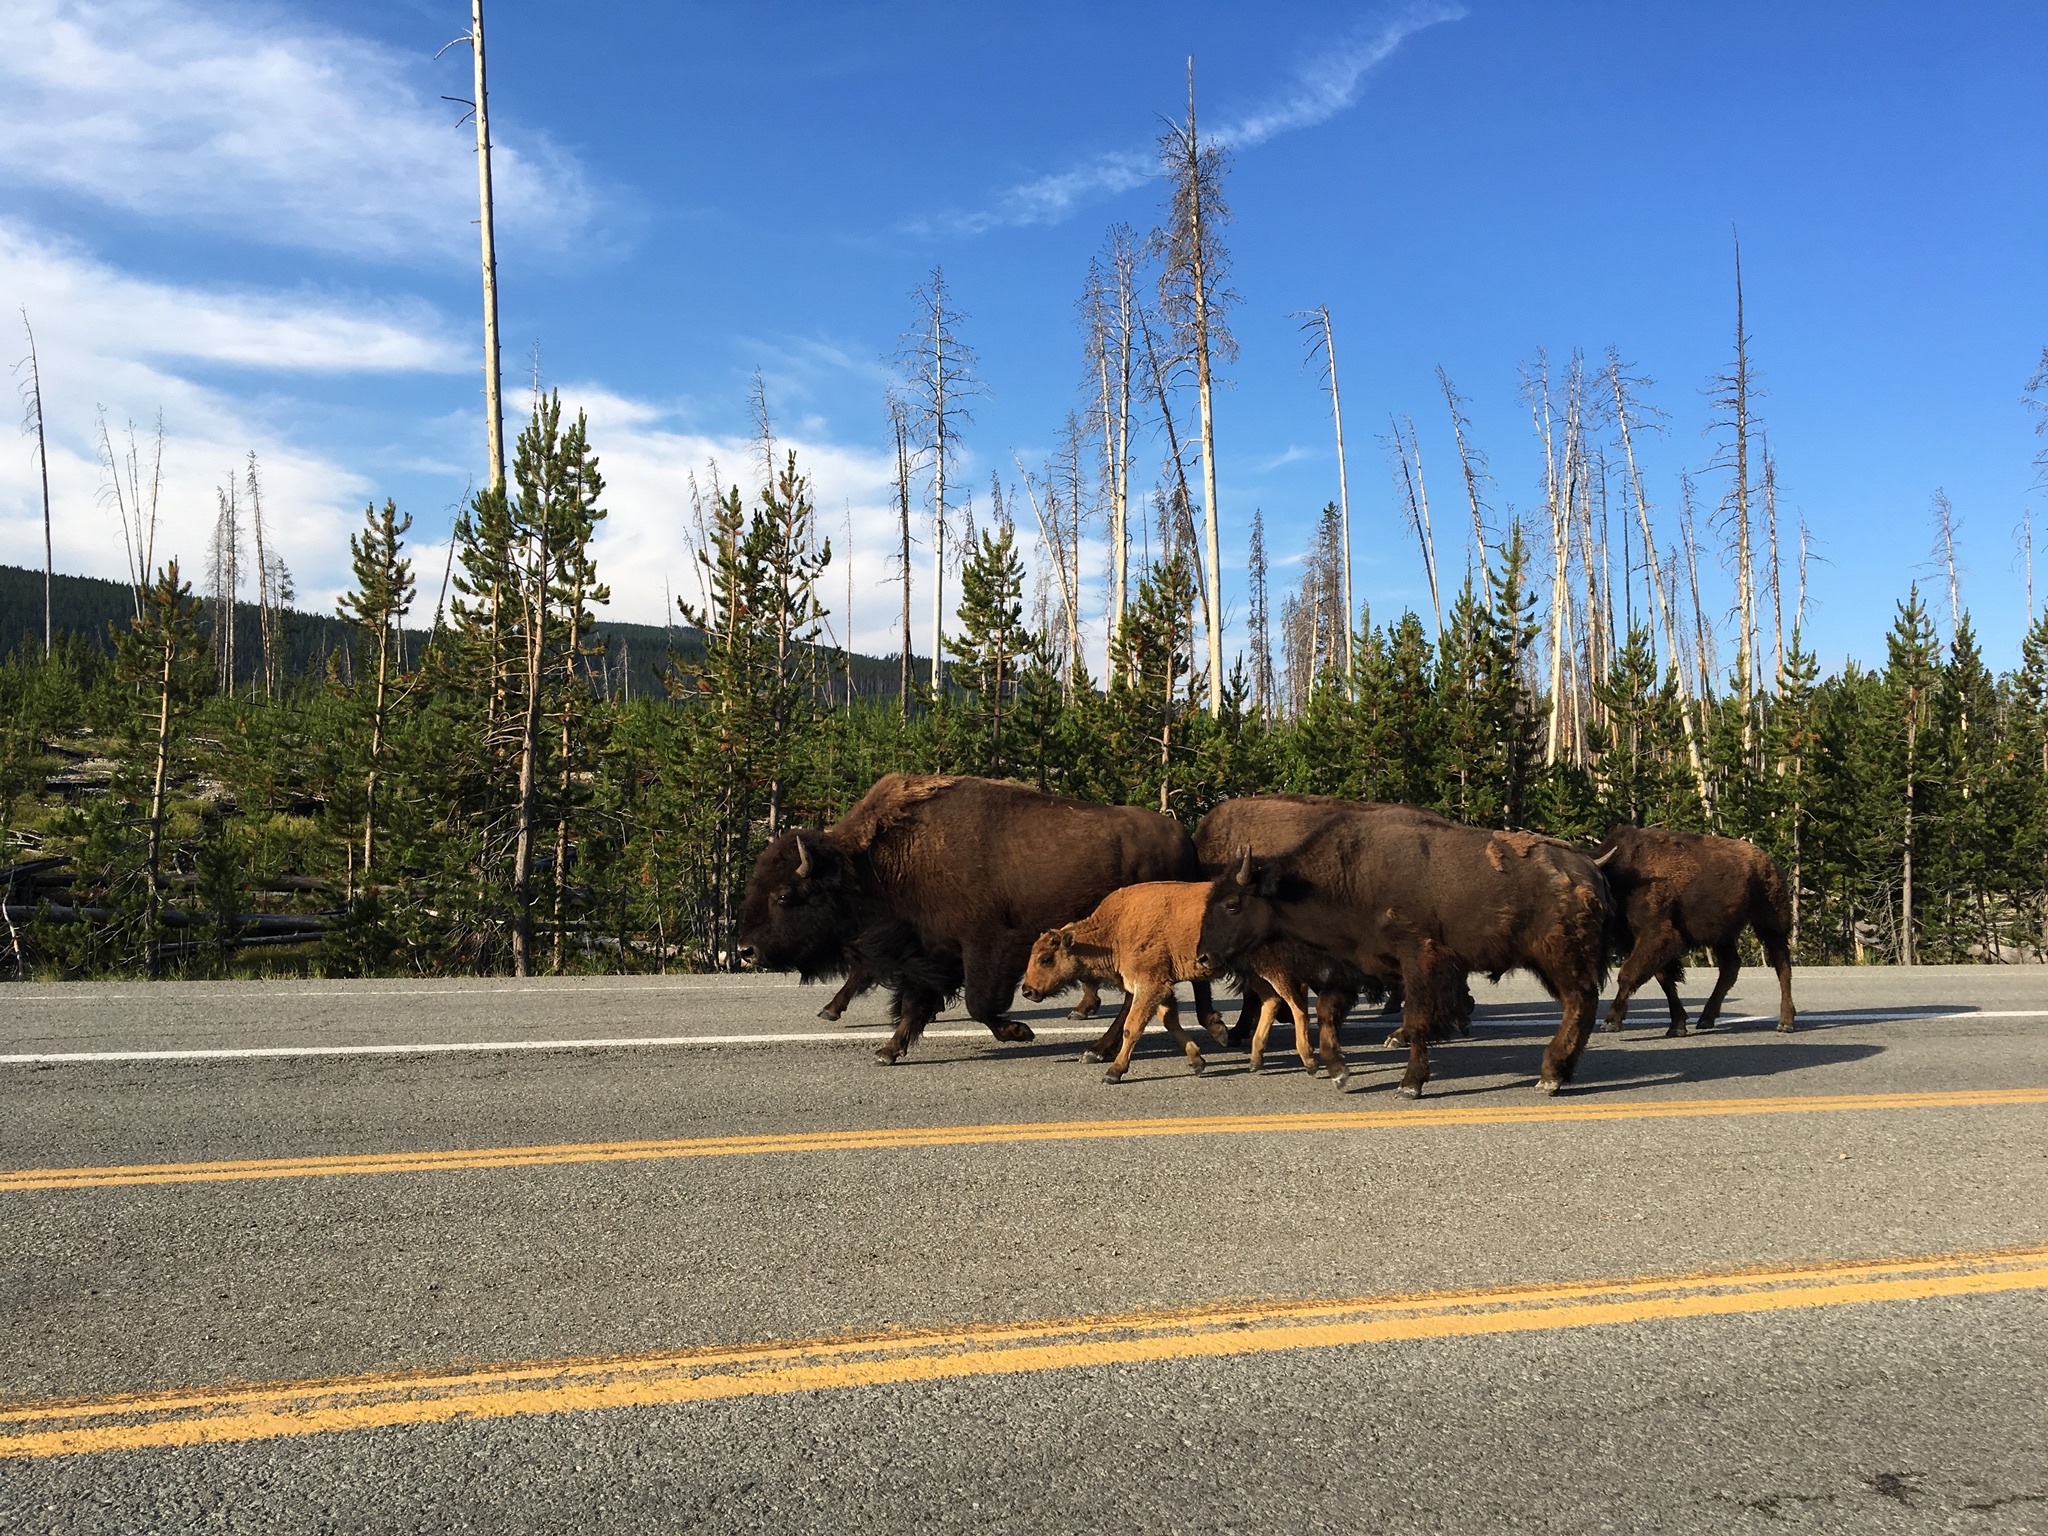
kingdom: Animalia
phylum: Chordata
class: Mammalia
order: Artiodactyla
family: Bovidae
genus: Bison
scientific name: Bison bison
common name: American bison
